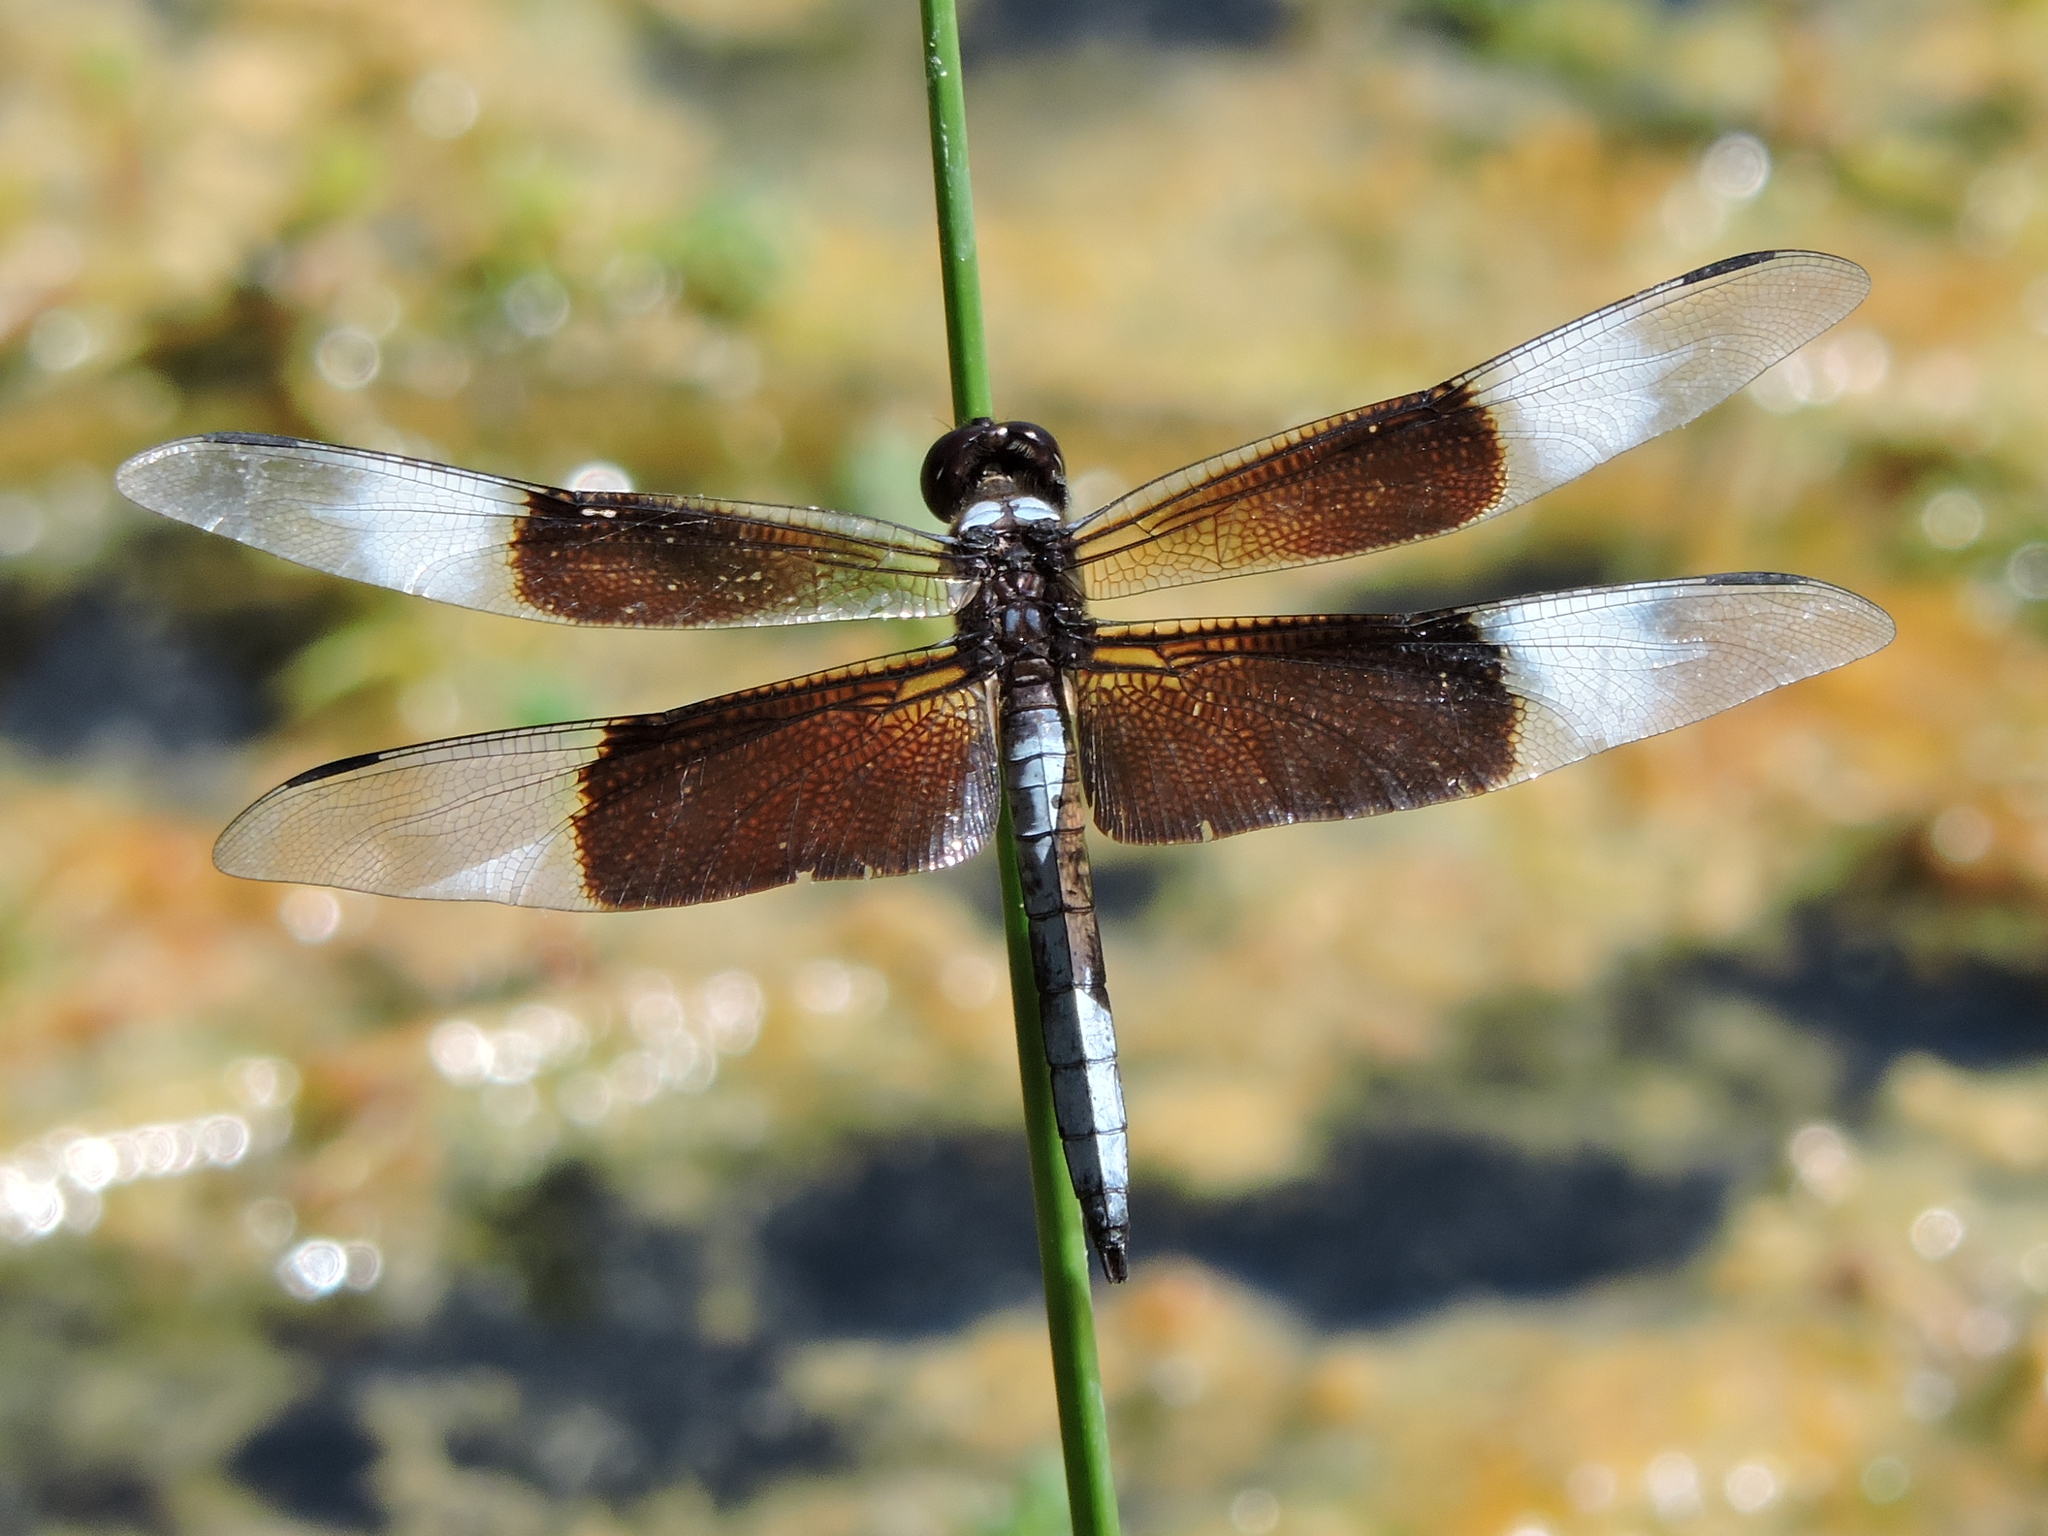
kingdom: Animalia
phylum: Arthropoda
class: Insecta
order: Odonata
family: Libellulidae
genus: Libellula
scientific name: Libellula luctuosa
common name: Widow skimmer
